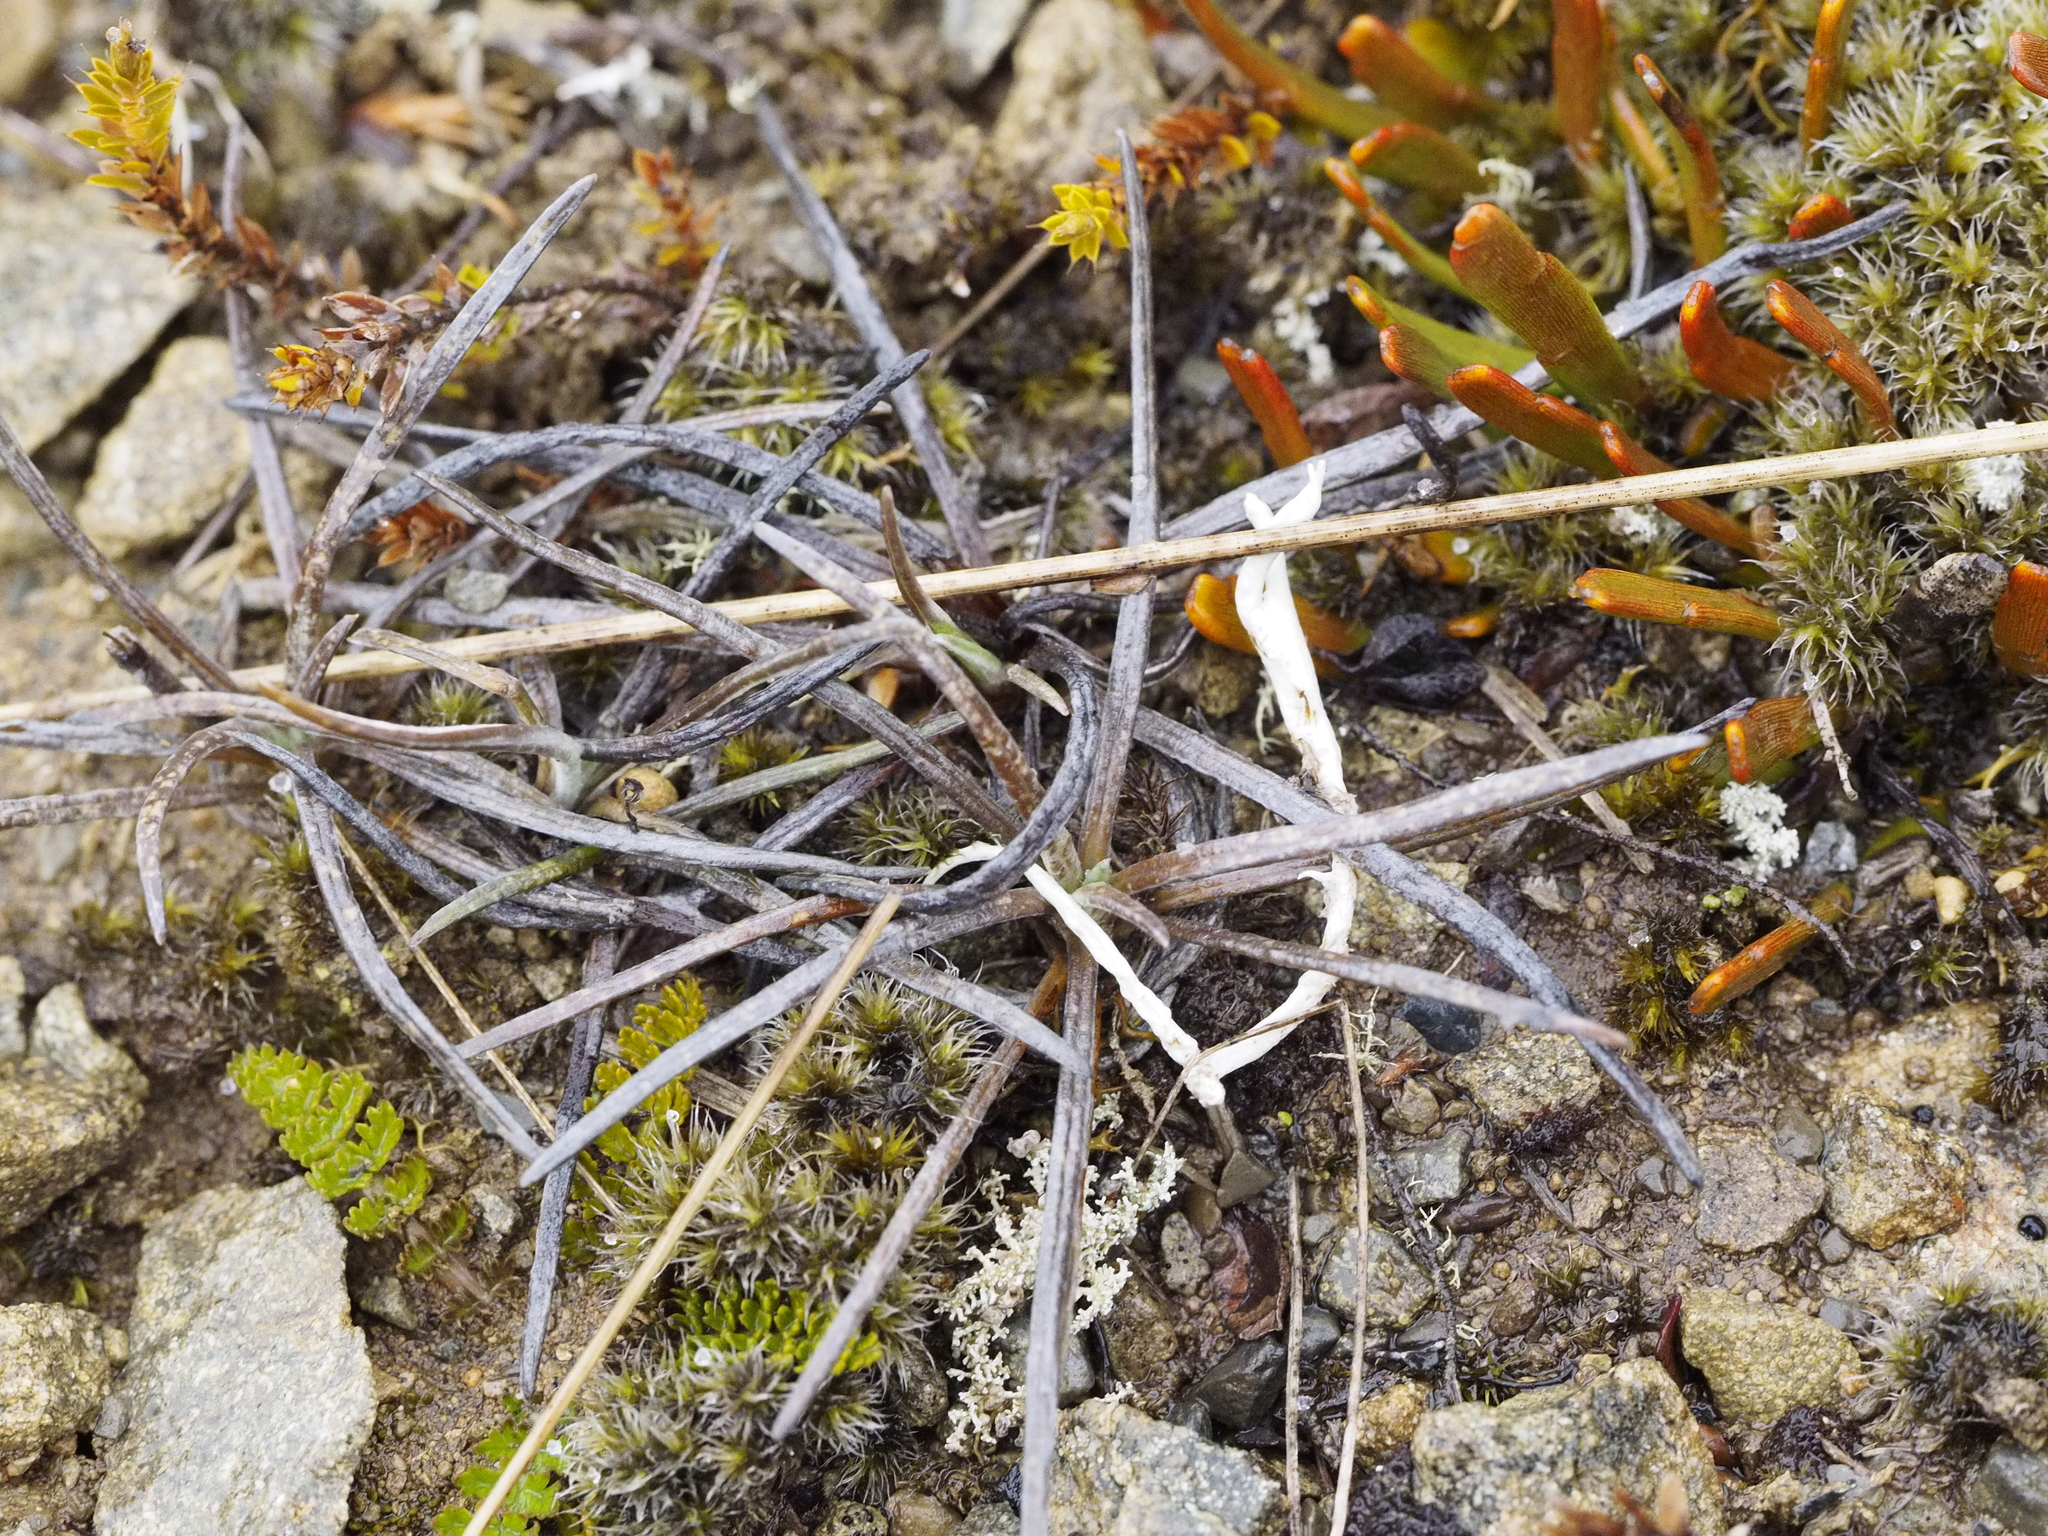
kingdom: Plantae
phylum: Tracheophyta
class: Magnoliopsida
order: Asterales
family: Asteraceae
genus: Celmisia
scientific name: Celmisia gracilenta
